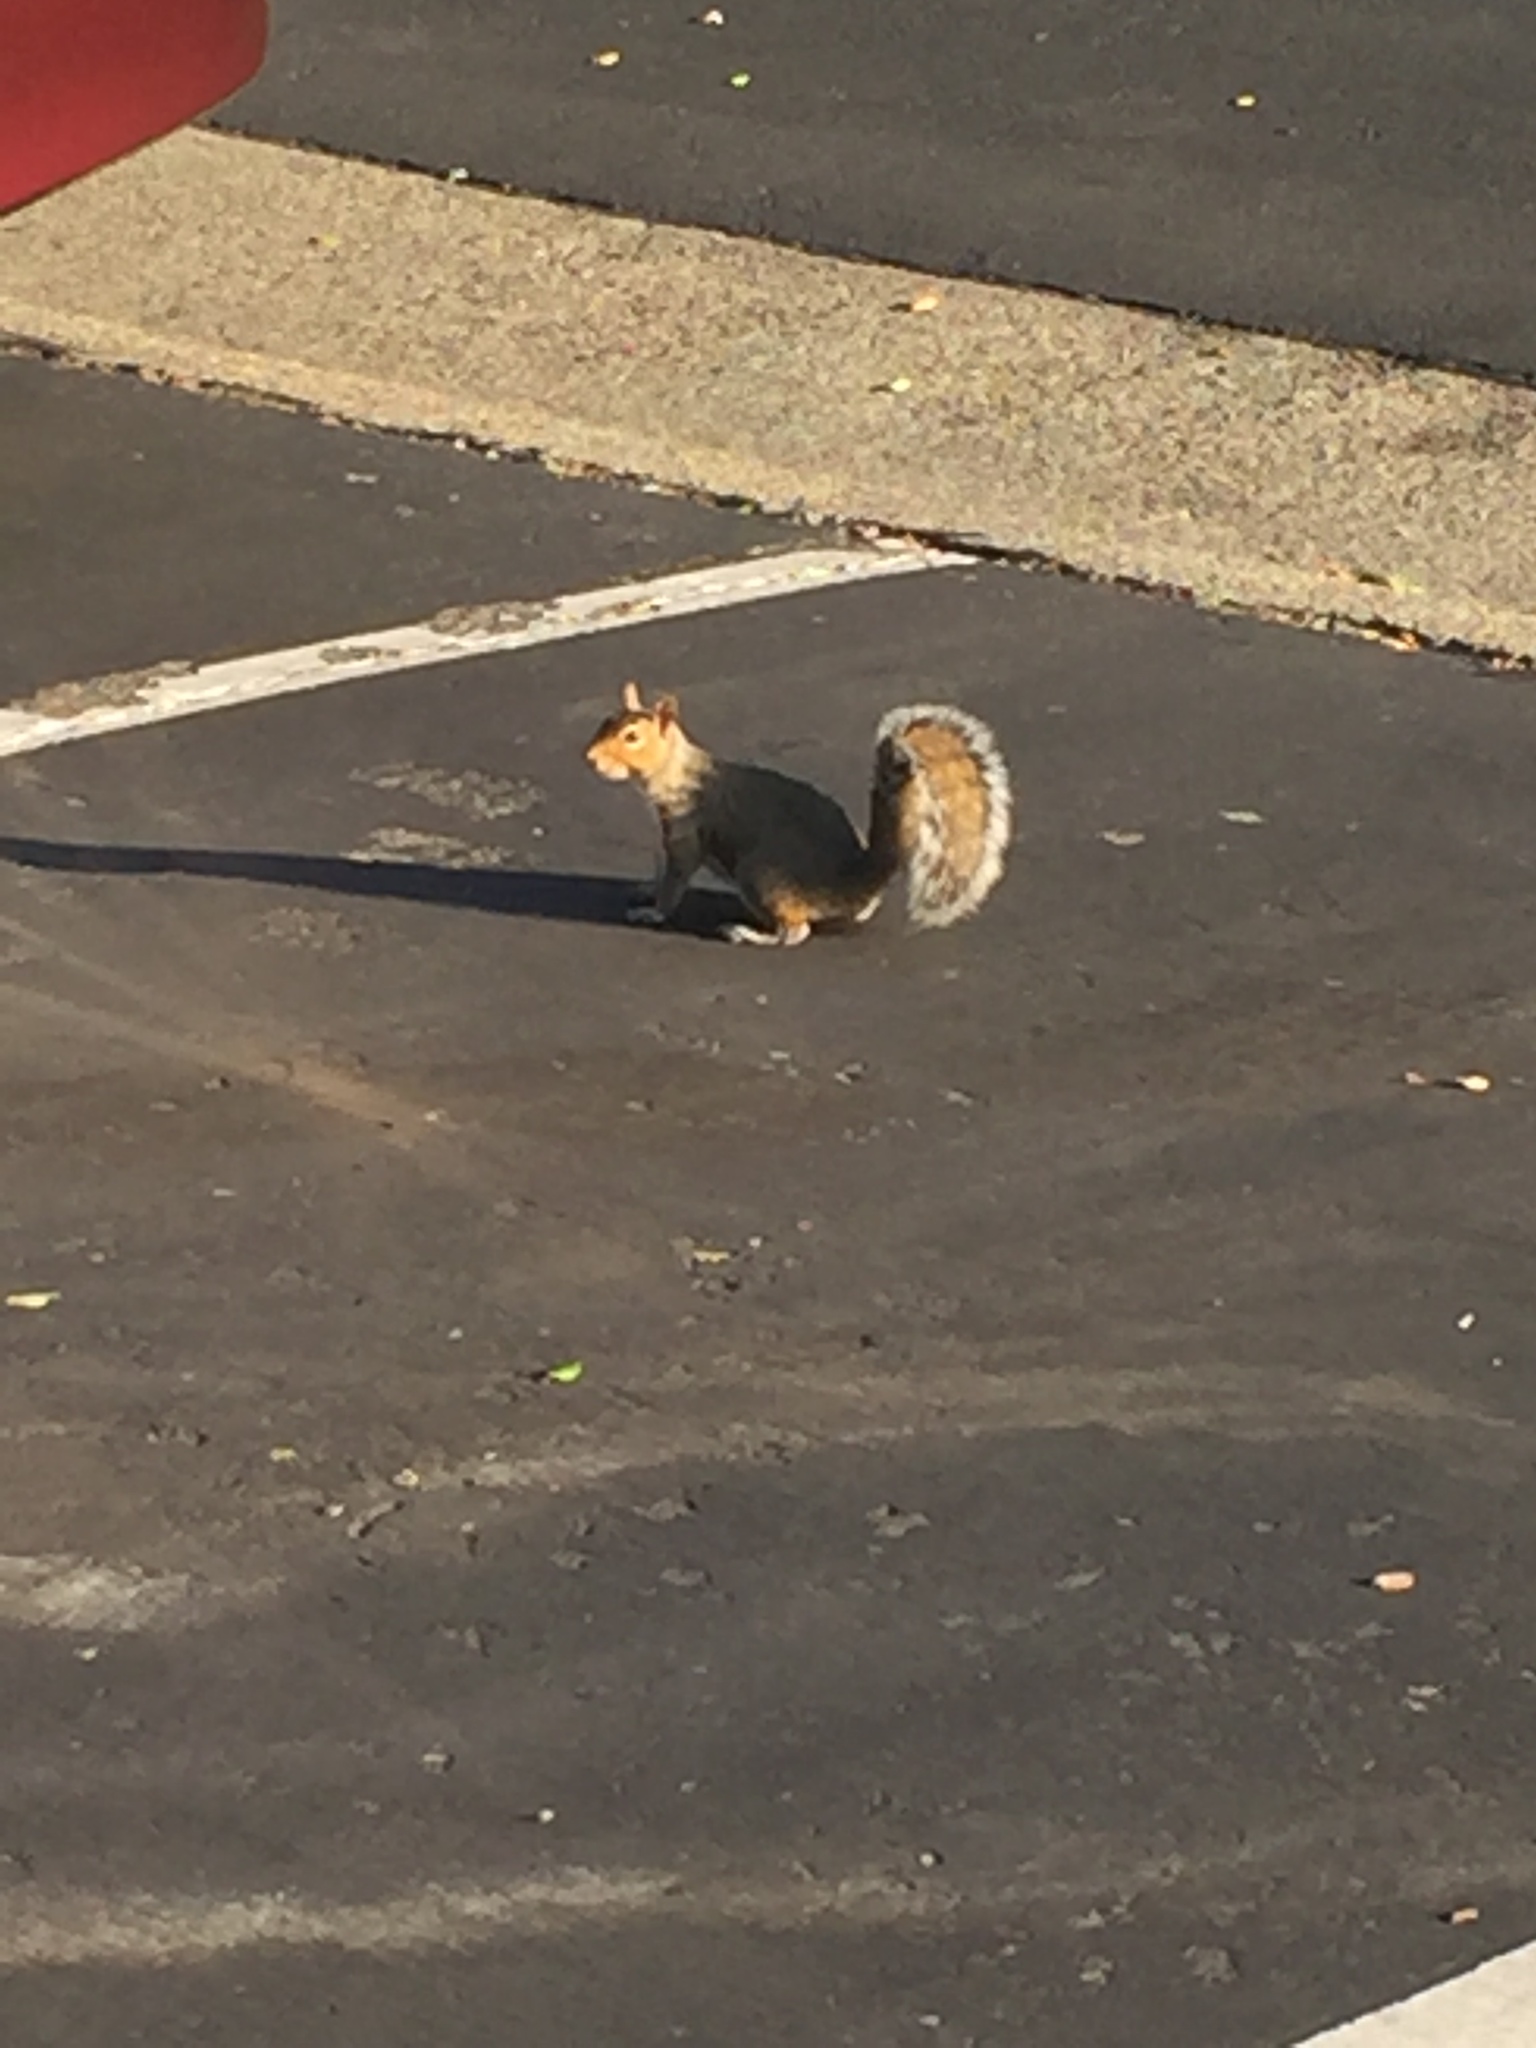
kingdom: Animalia
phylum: Chordata
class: Mammalia
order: Rodentia
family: Sciuridae
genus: Sciurus
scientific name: Sciurus carolinensis
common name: Eastern gray squirrel
